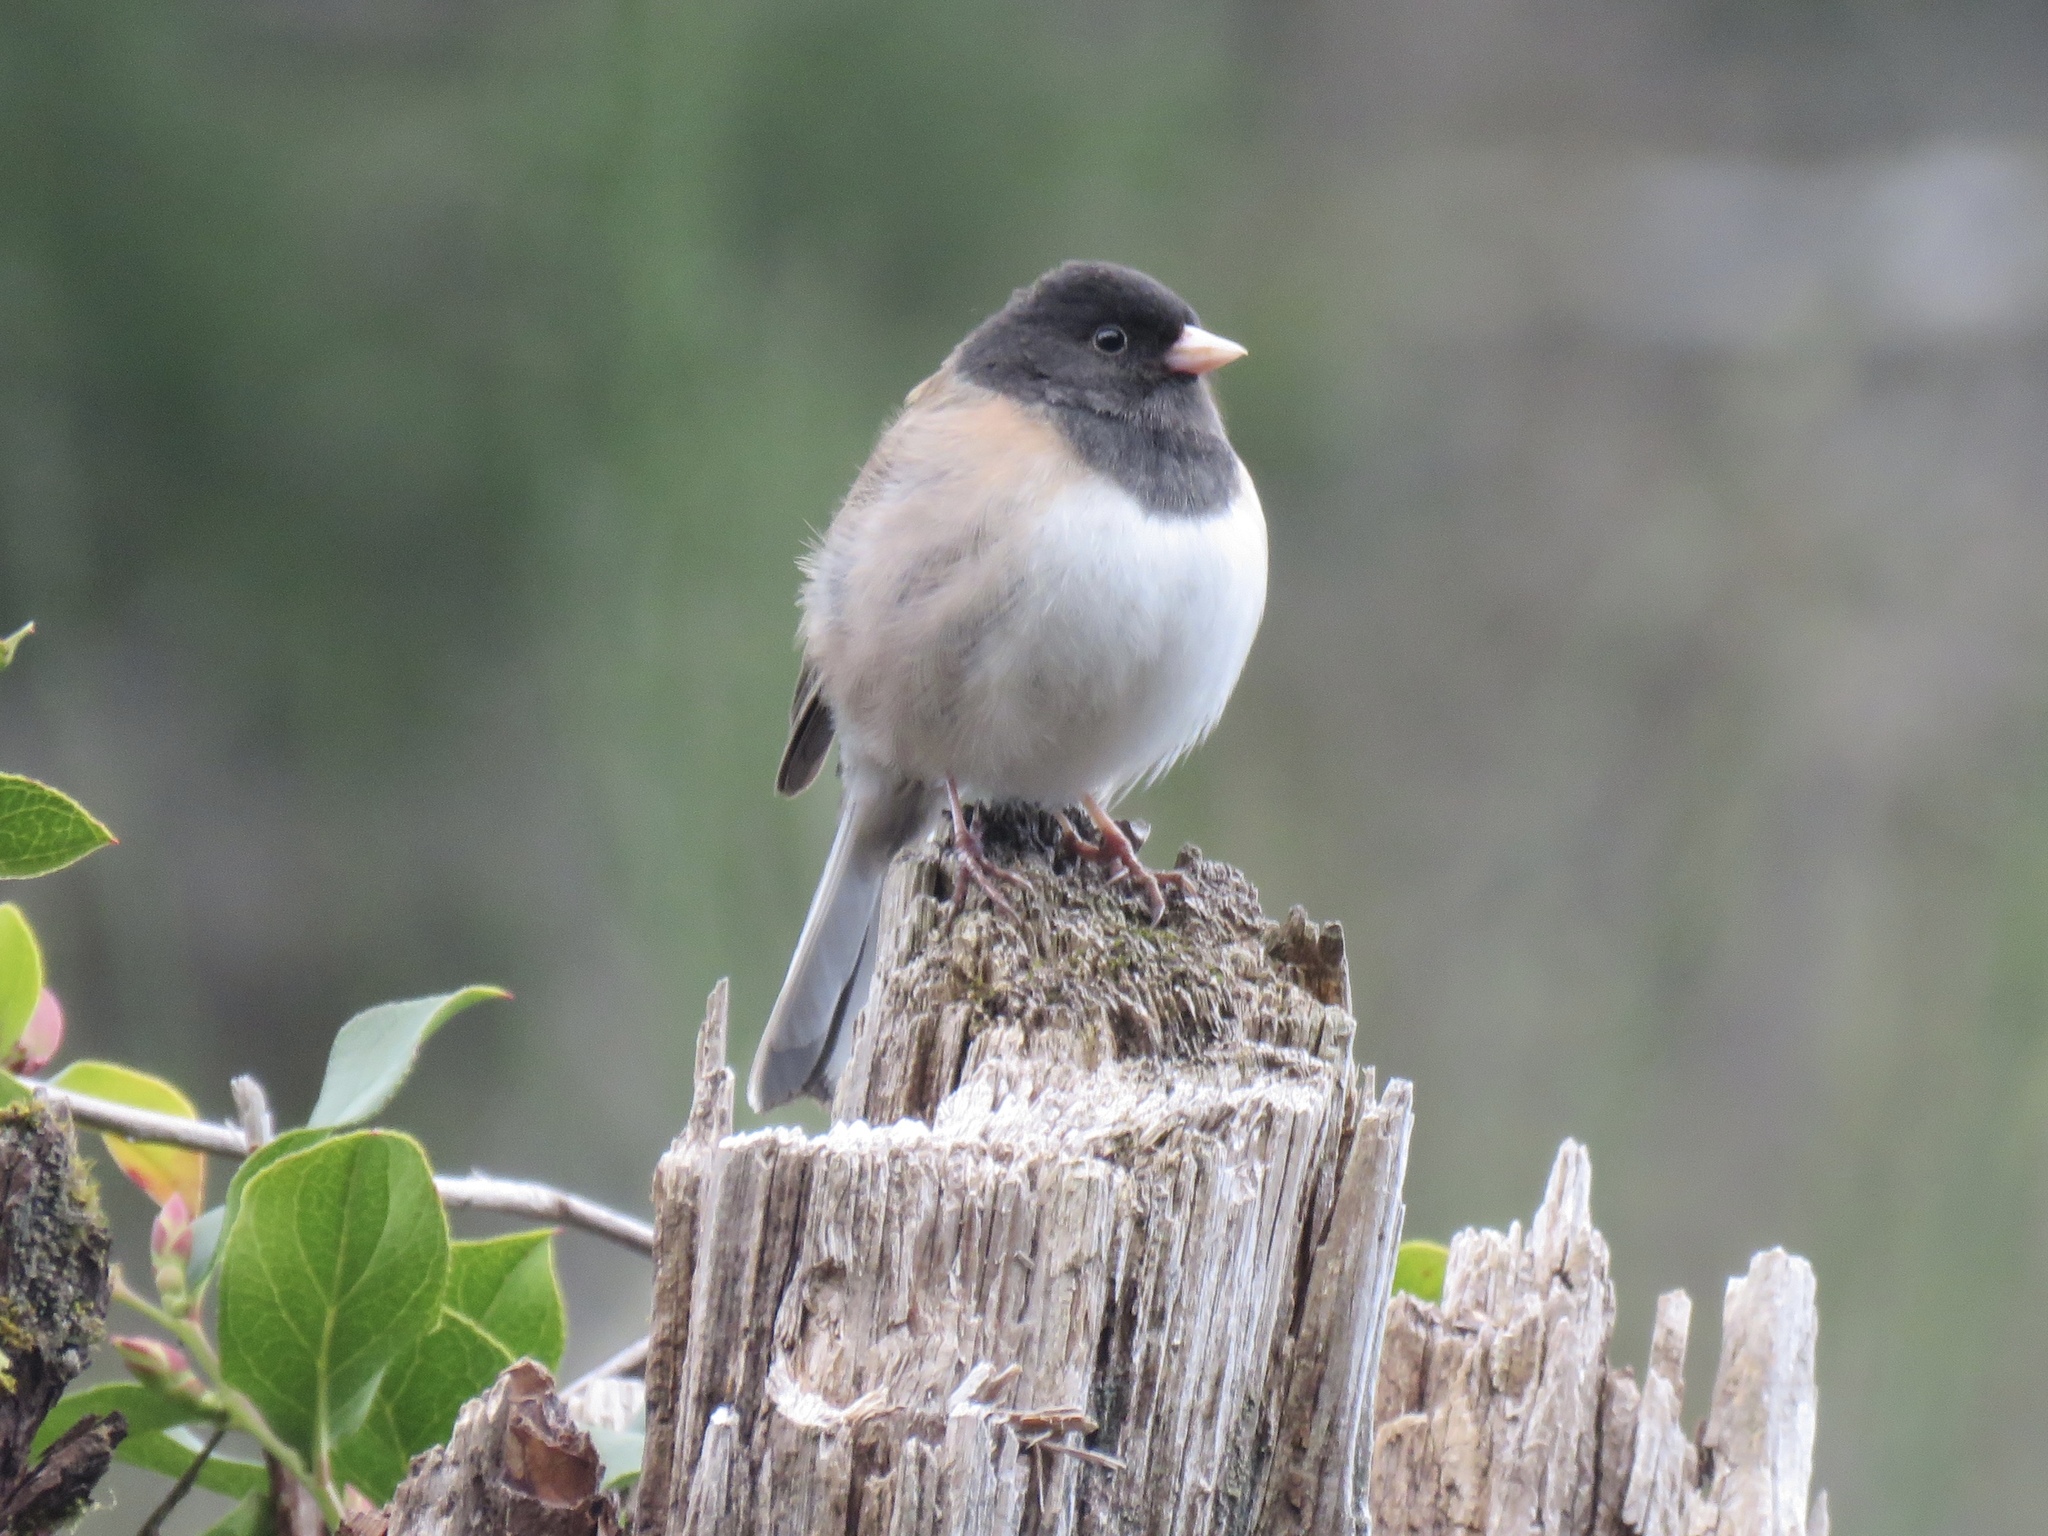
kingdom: Animalia
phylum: Chordata
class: Aves
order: Passeriformes
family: Passerellidae
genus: Junco
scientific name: Junco hyemalis
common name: Dark-eyed junco
